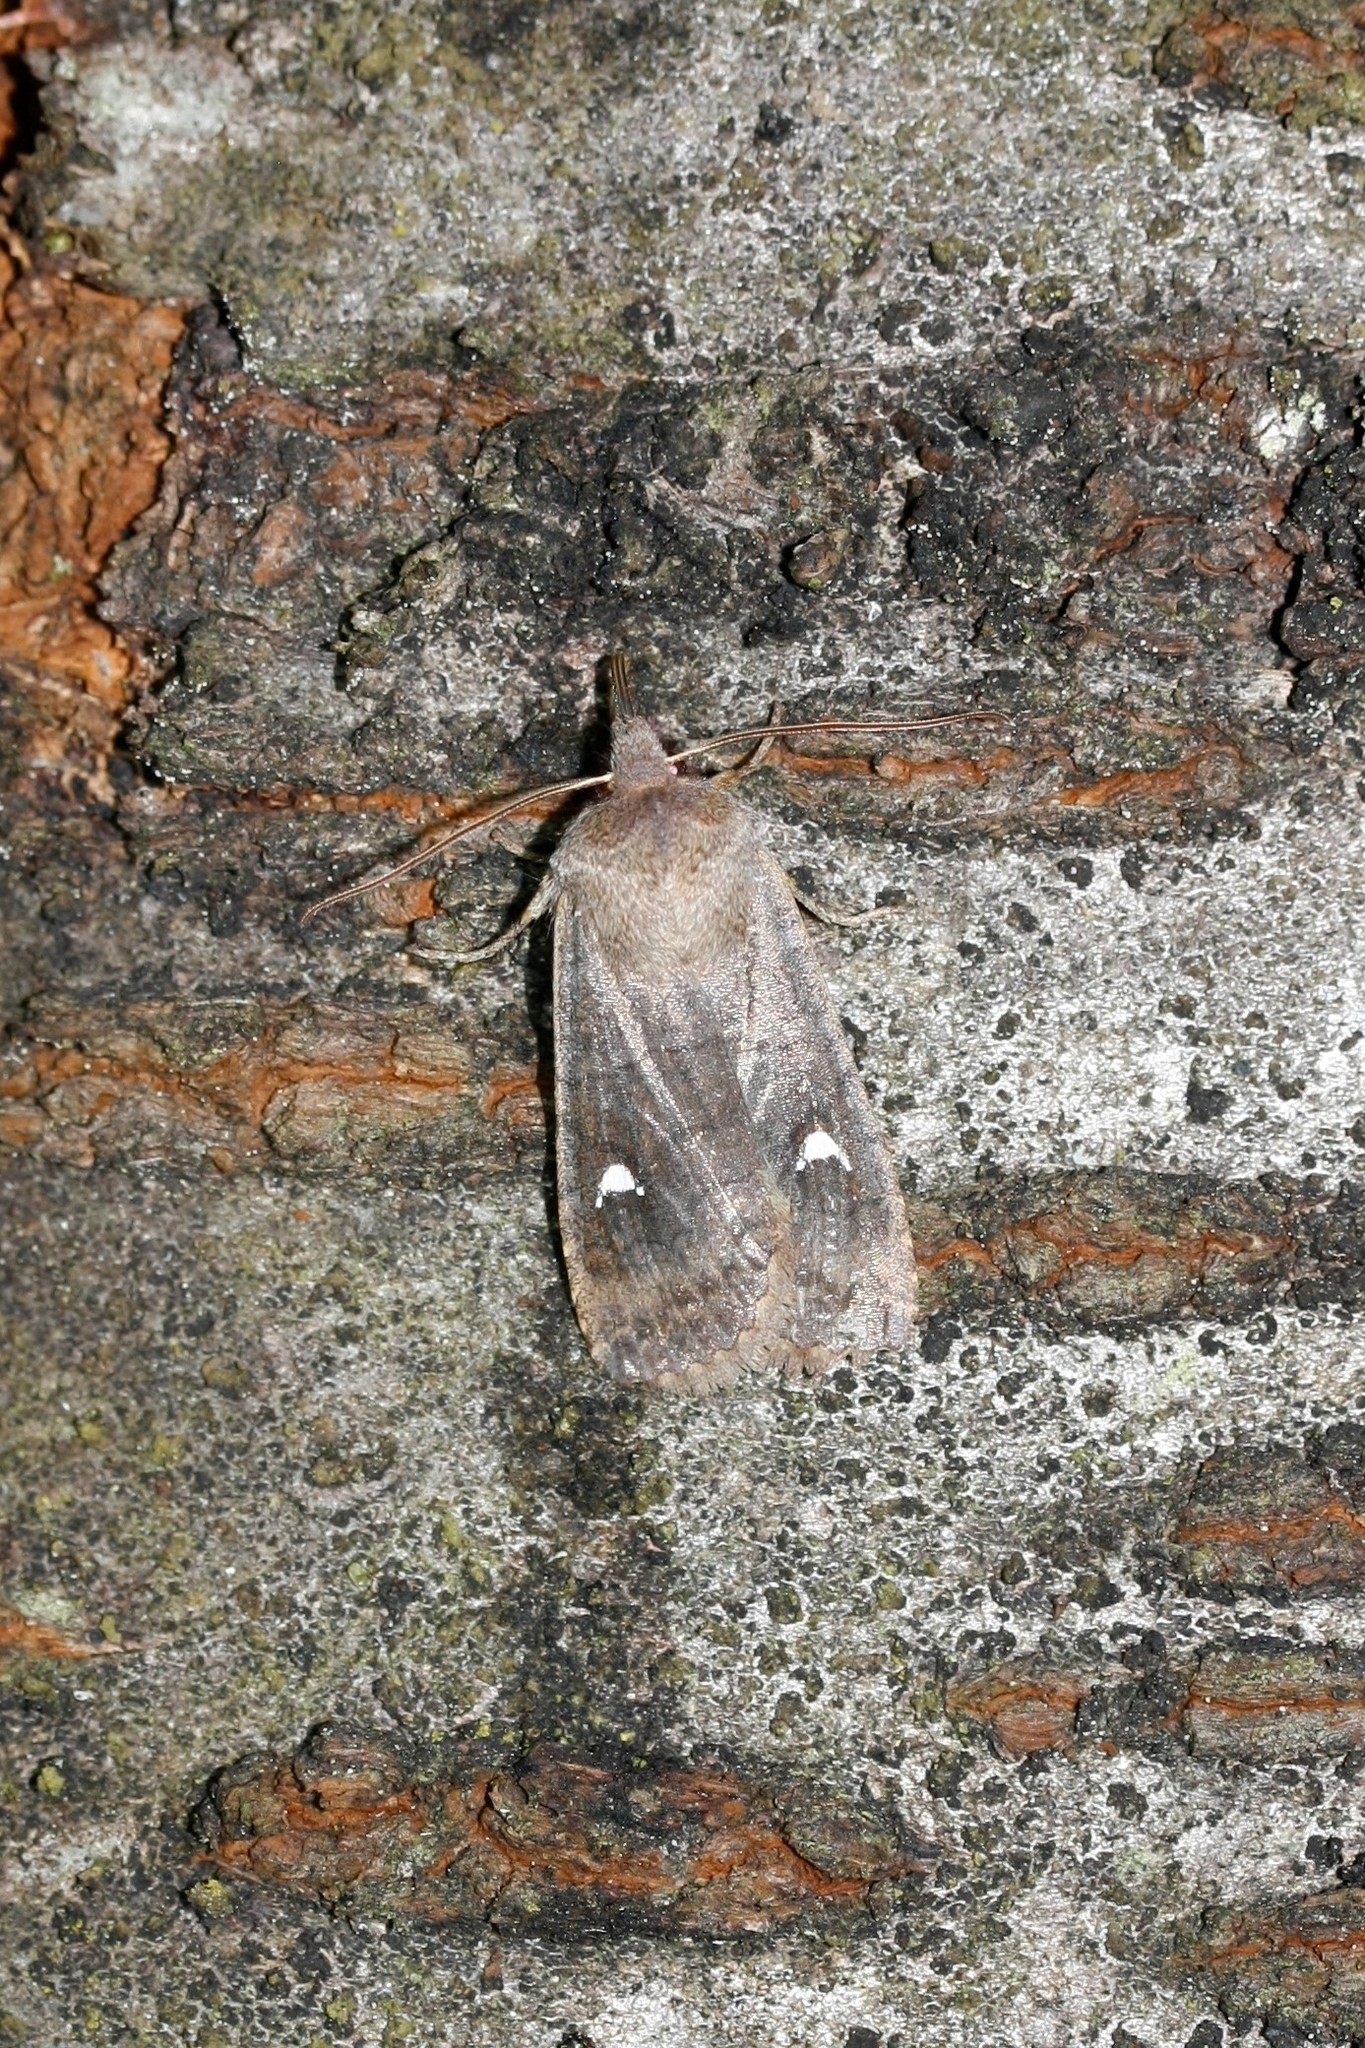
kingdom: Animalia
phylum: Arthropoda
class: Insecta
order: Lepidoptera
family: Noctuidae
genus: Eupsilia
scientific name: Eupsilia transversa
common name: Satellite
